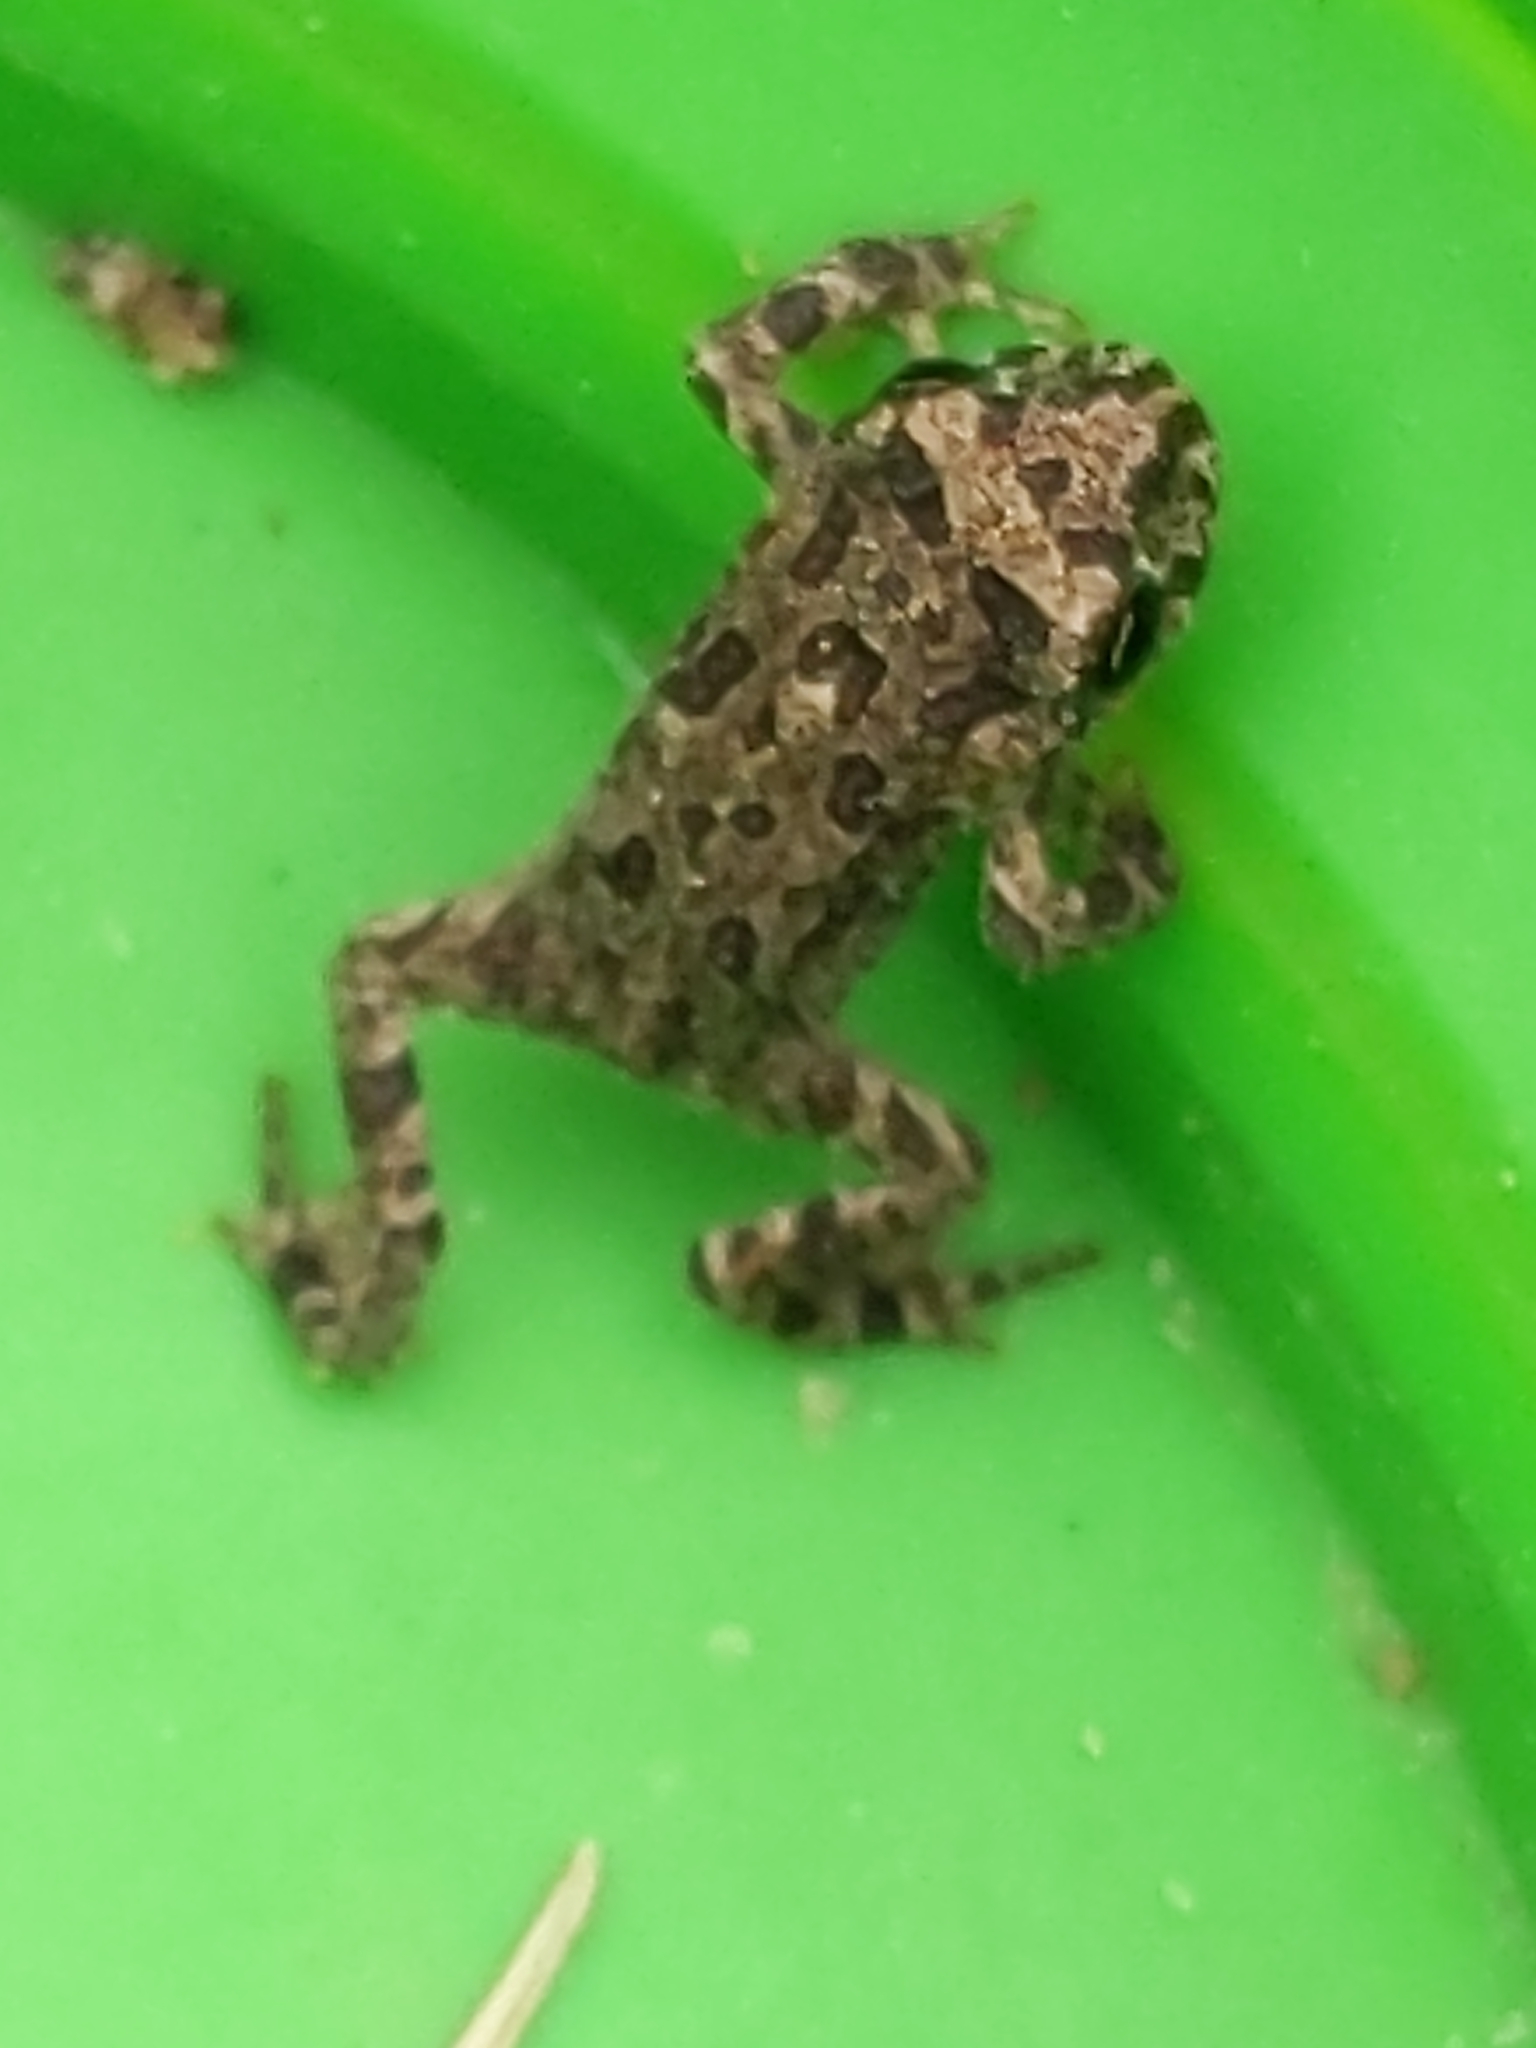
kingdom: Animalia
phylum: Chordata
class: Amphibia
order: Anura
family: Bufonidae
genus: Anaxyrus
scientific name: Anaxyrus boreas
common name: Western toad
